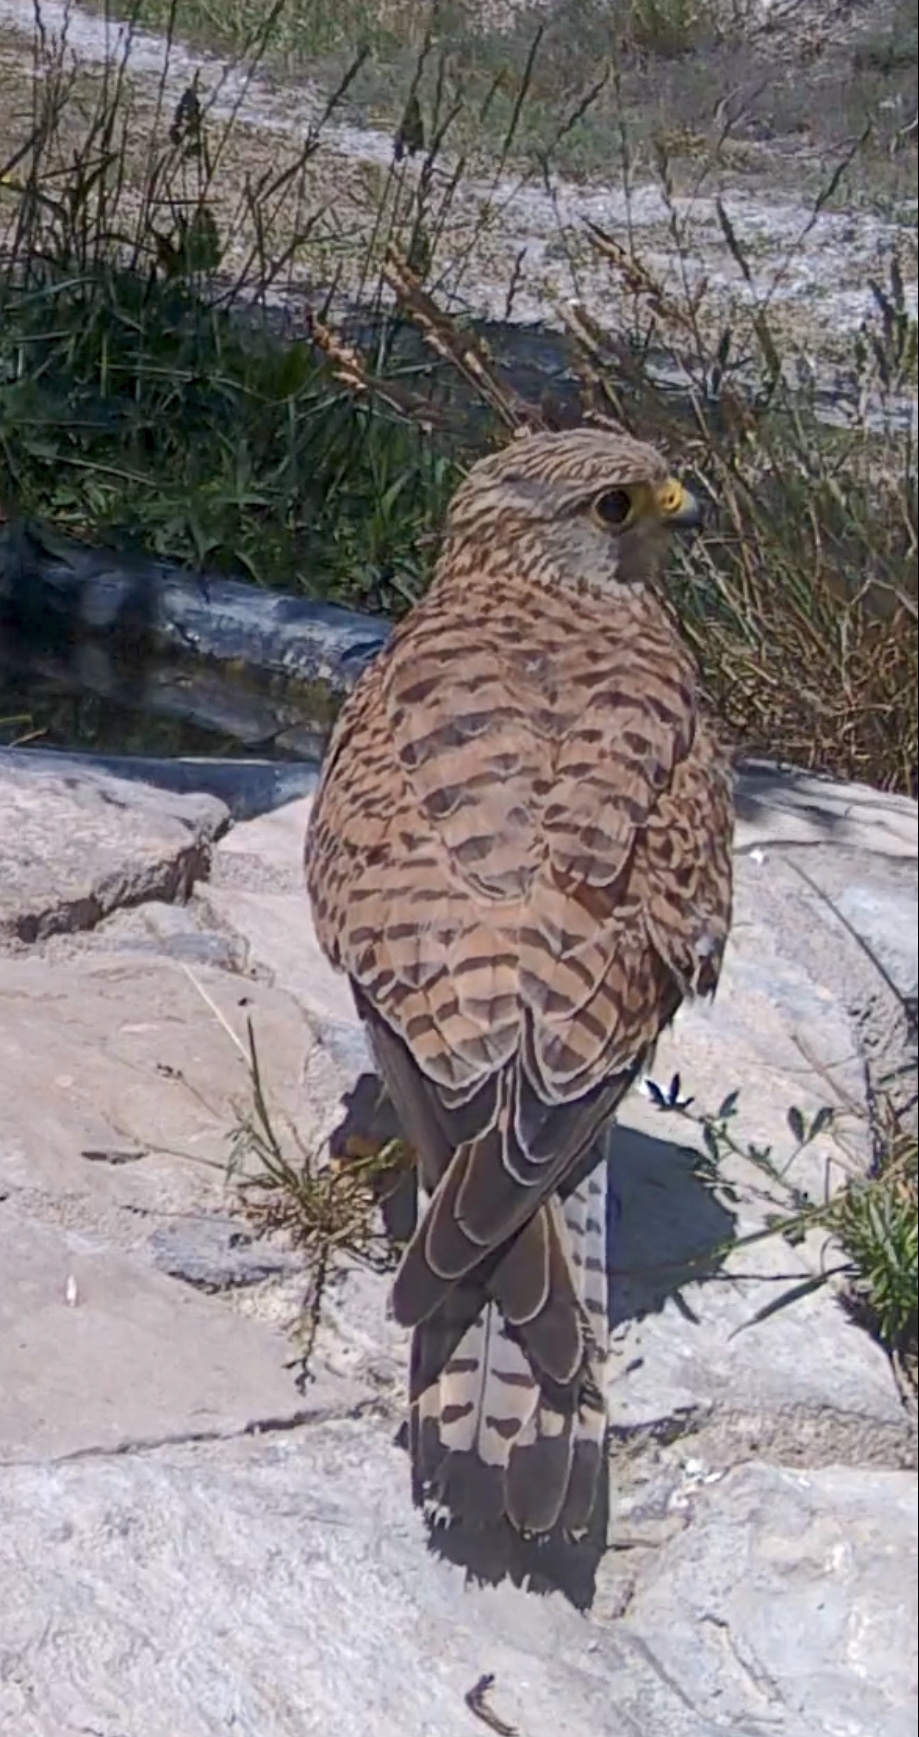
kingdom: Animalia
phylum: Chordata
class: Aves
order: Falconiformes
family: Falconidae
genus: Falco
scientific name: Falco tinnunculus
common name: Common kestrel
